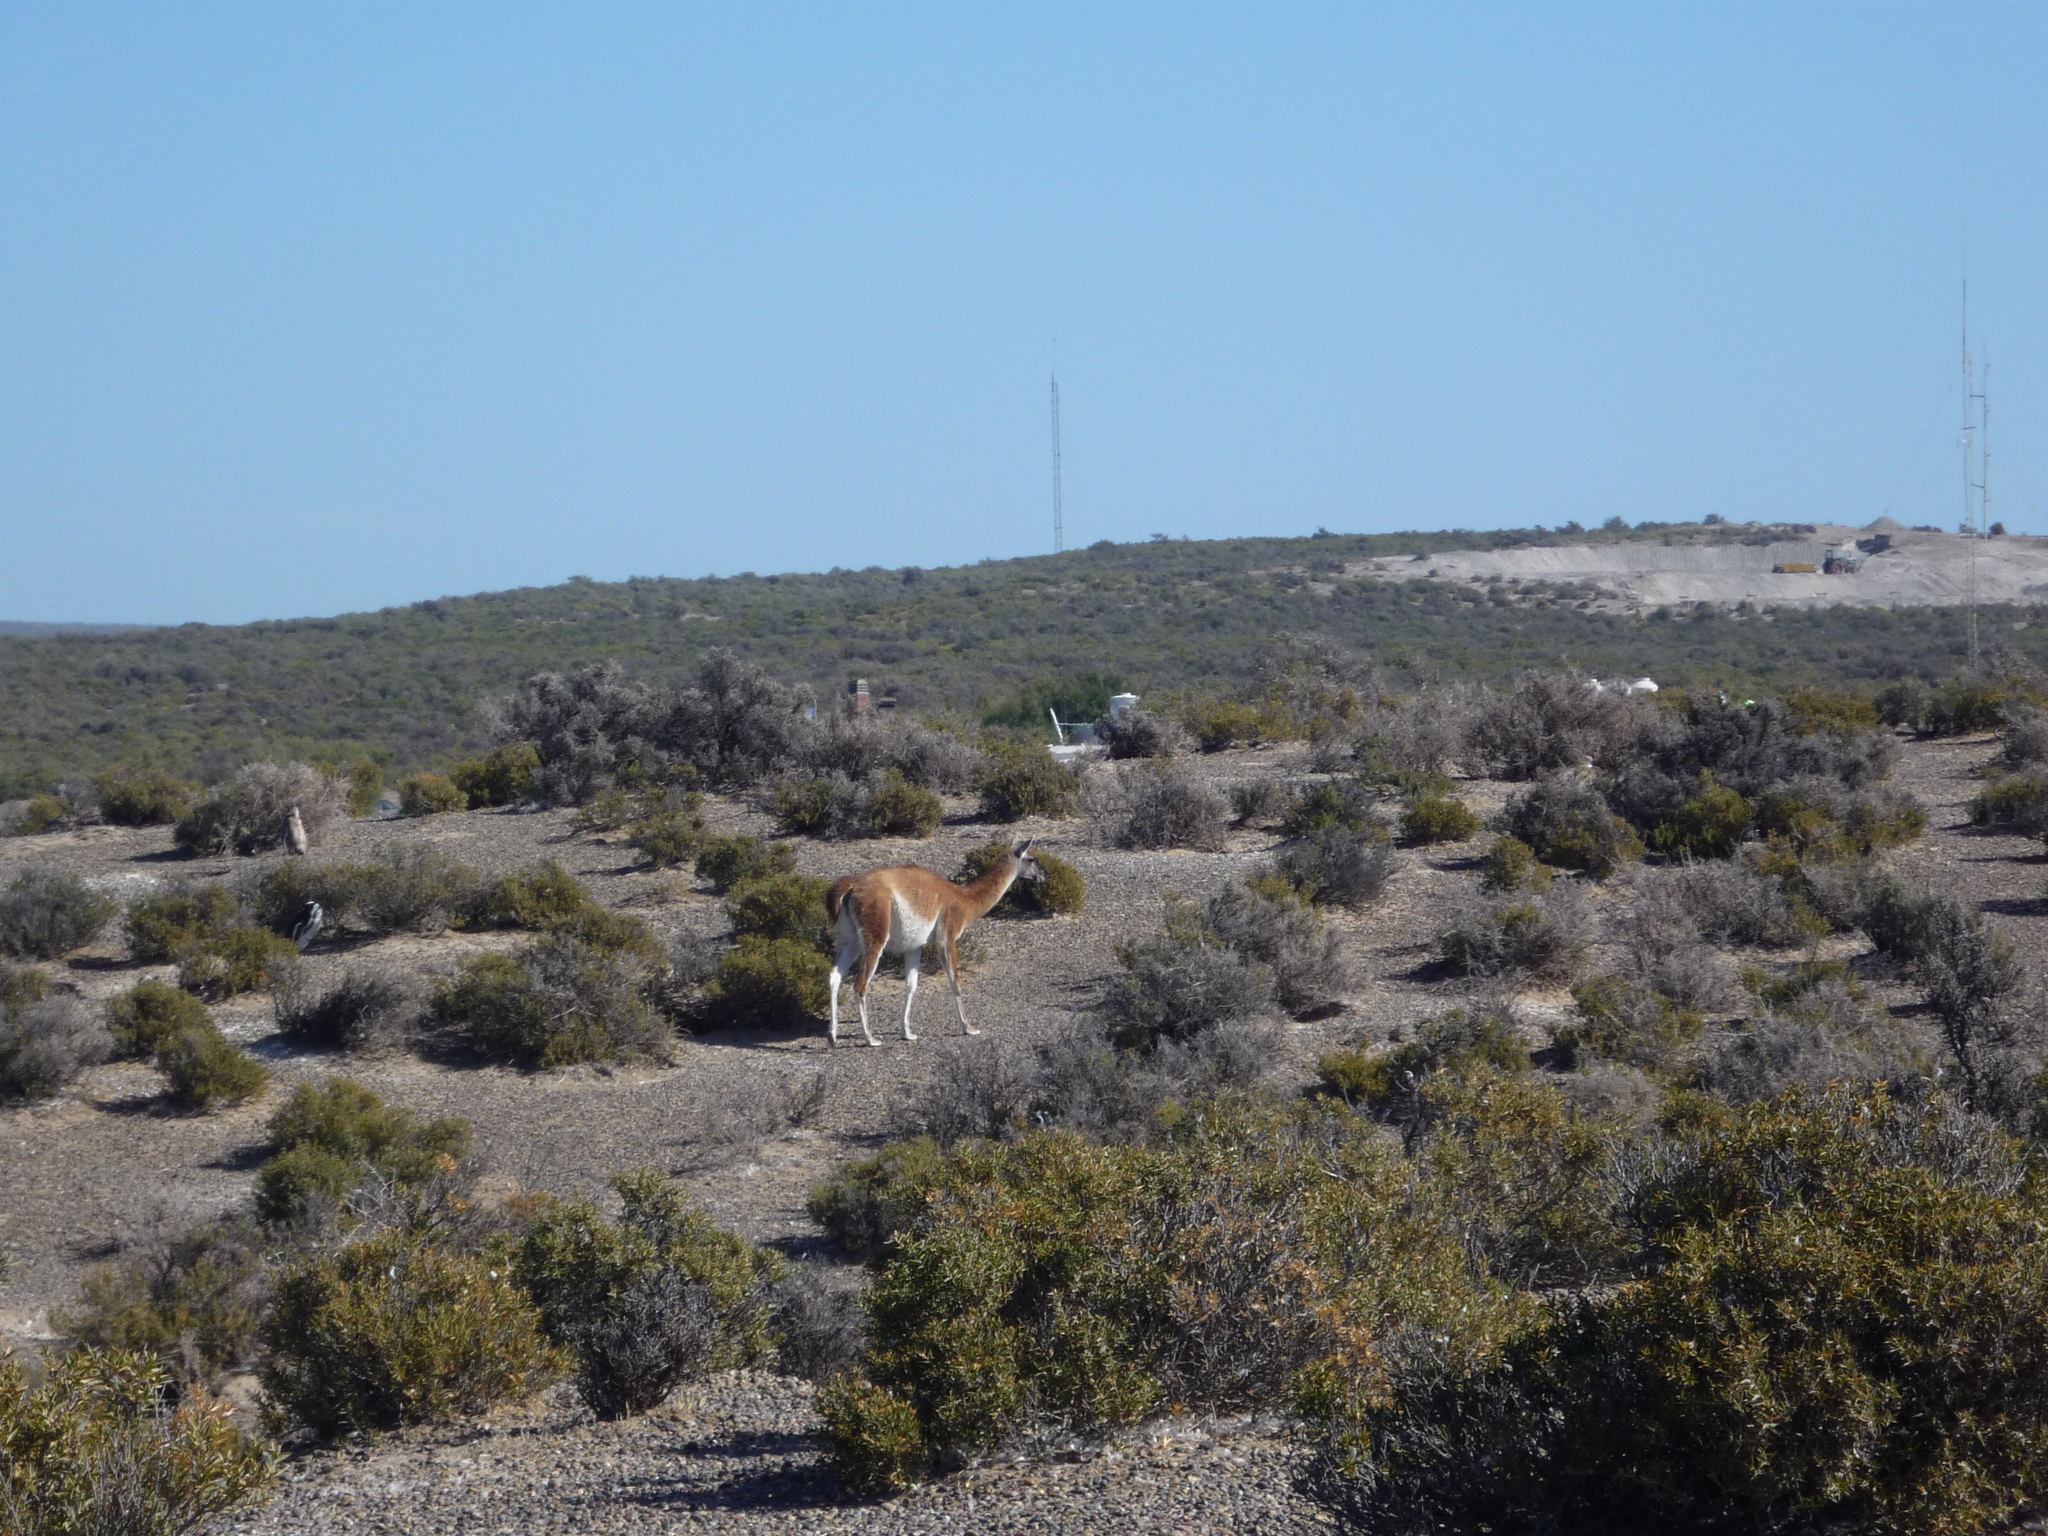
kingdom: Animalia
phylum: Chordata
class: Mammalia
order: Artiodactyla
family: Camelidae
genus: Lama
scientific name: Lama glama
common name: Llama
